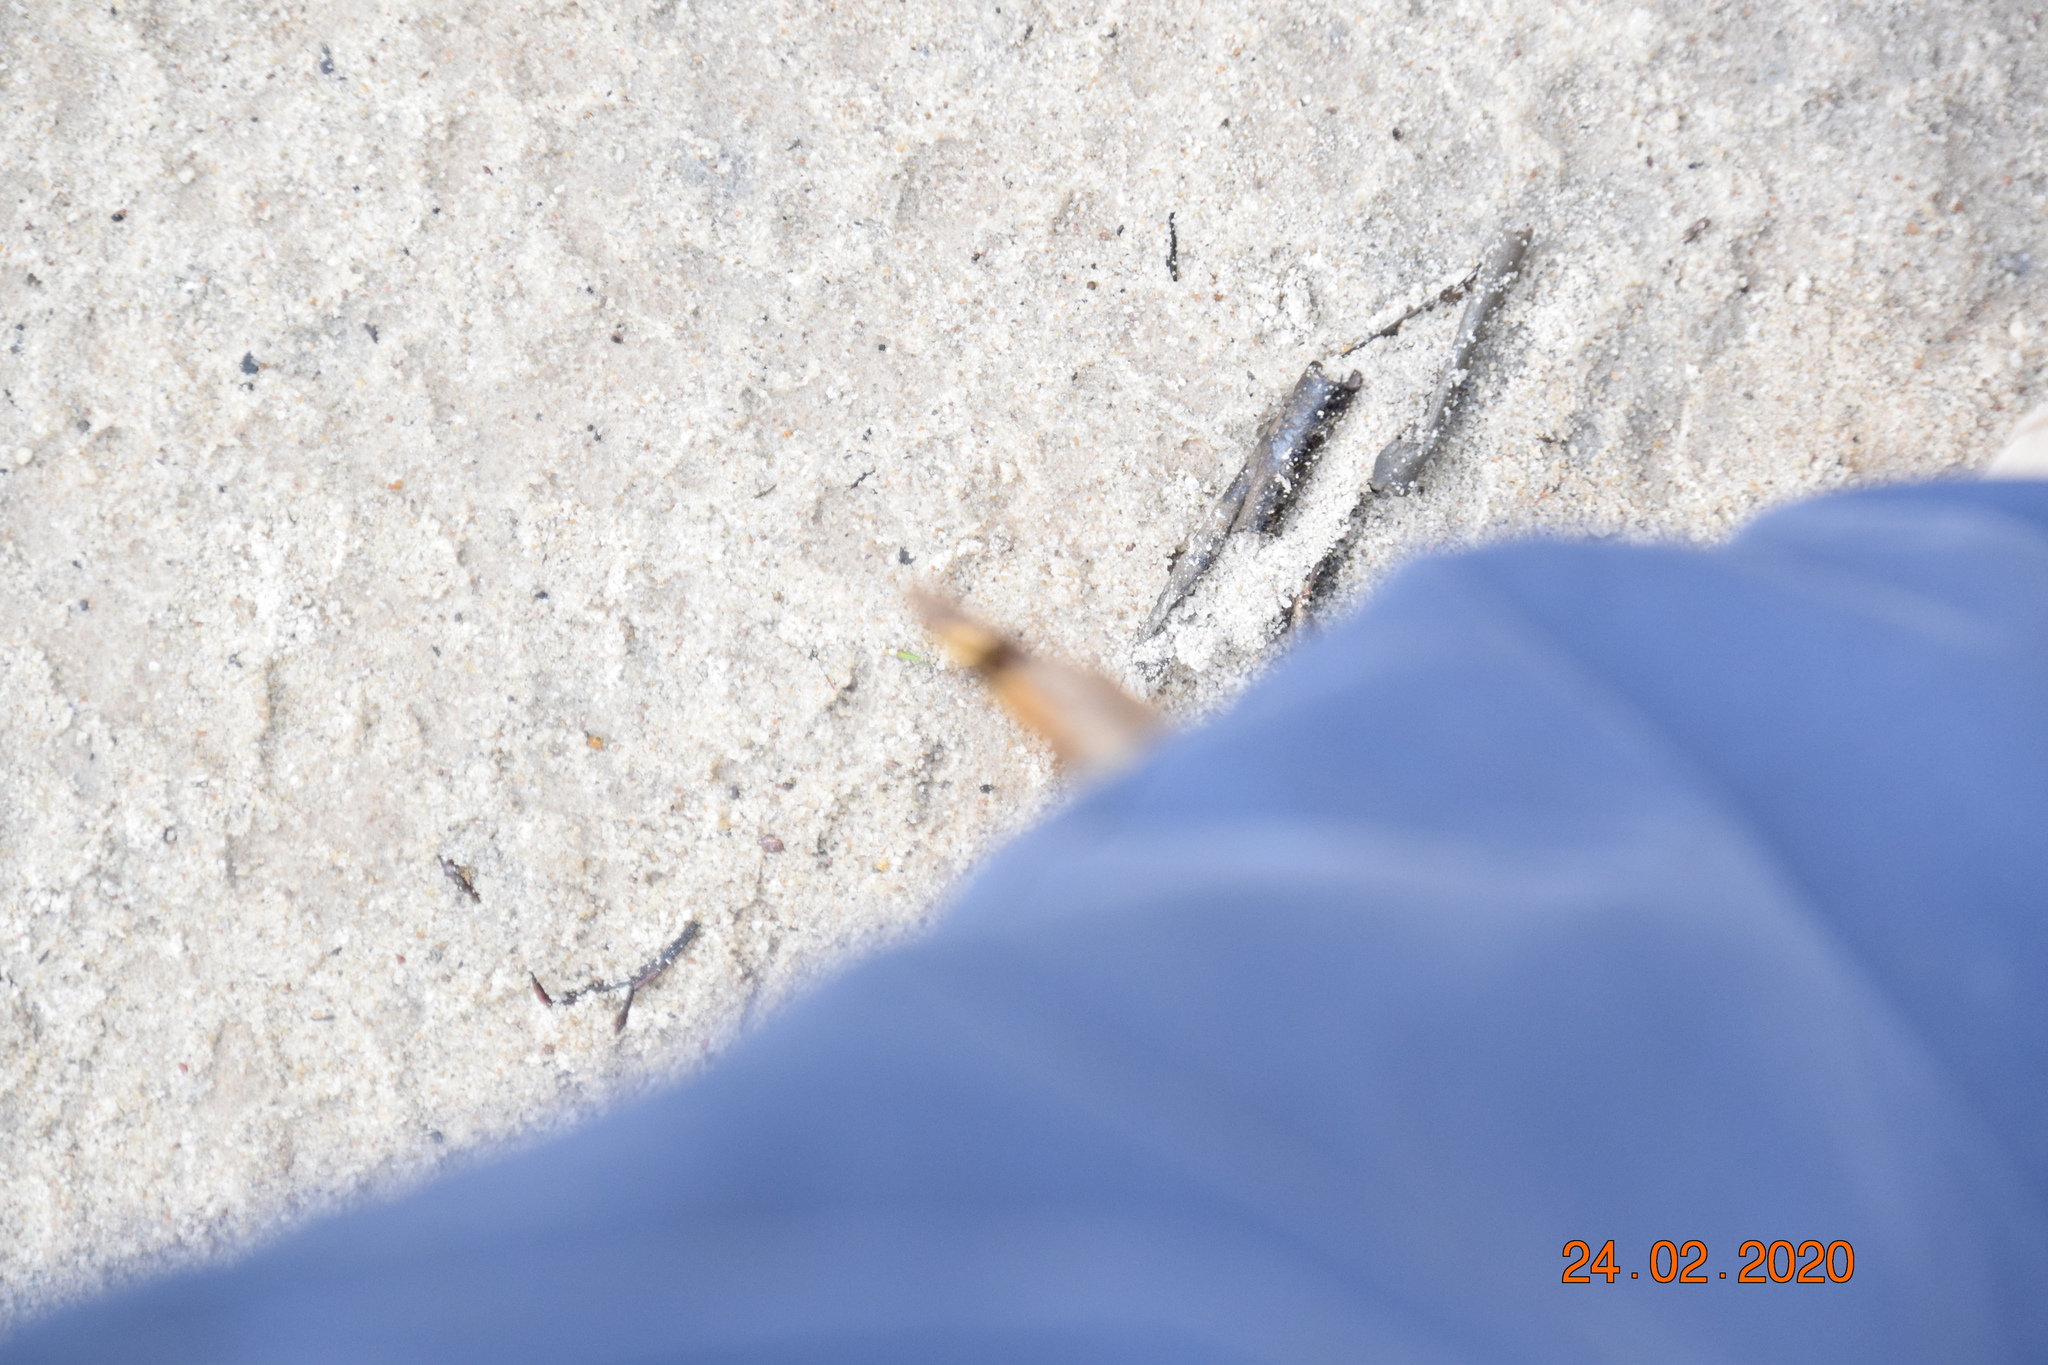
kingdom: Animalia
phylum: Arthropoda
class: Insecta
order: Lepidoptera
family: Nymphalidae
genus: Vanessa
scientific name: Vanessa kershawi
